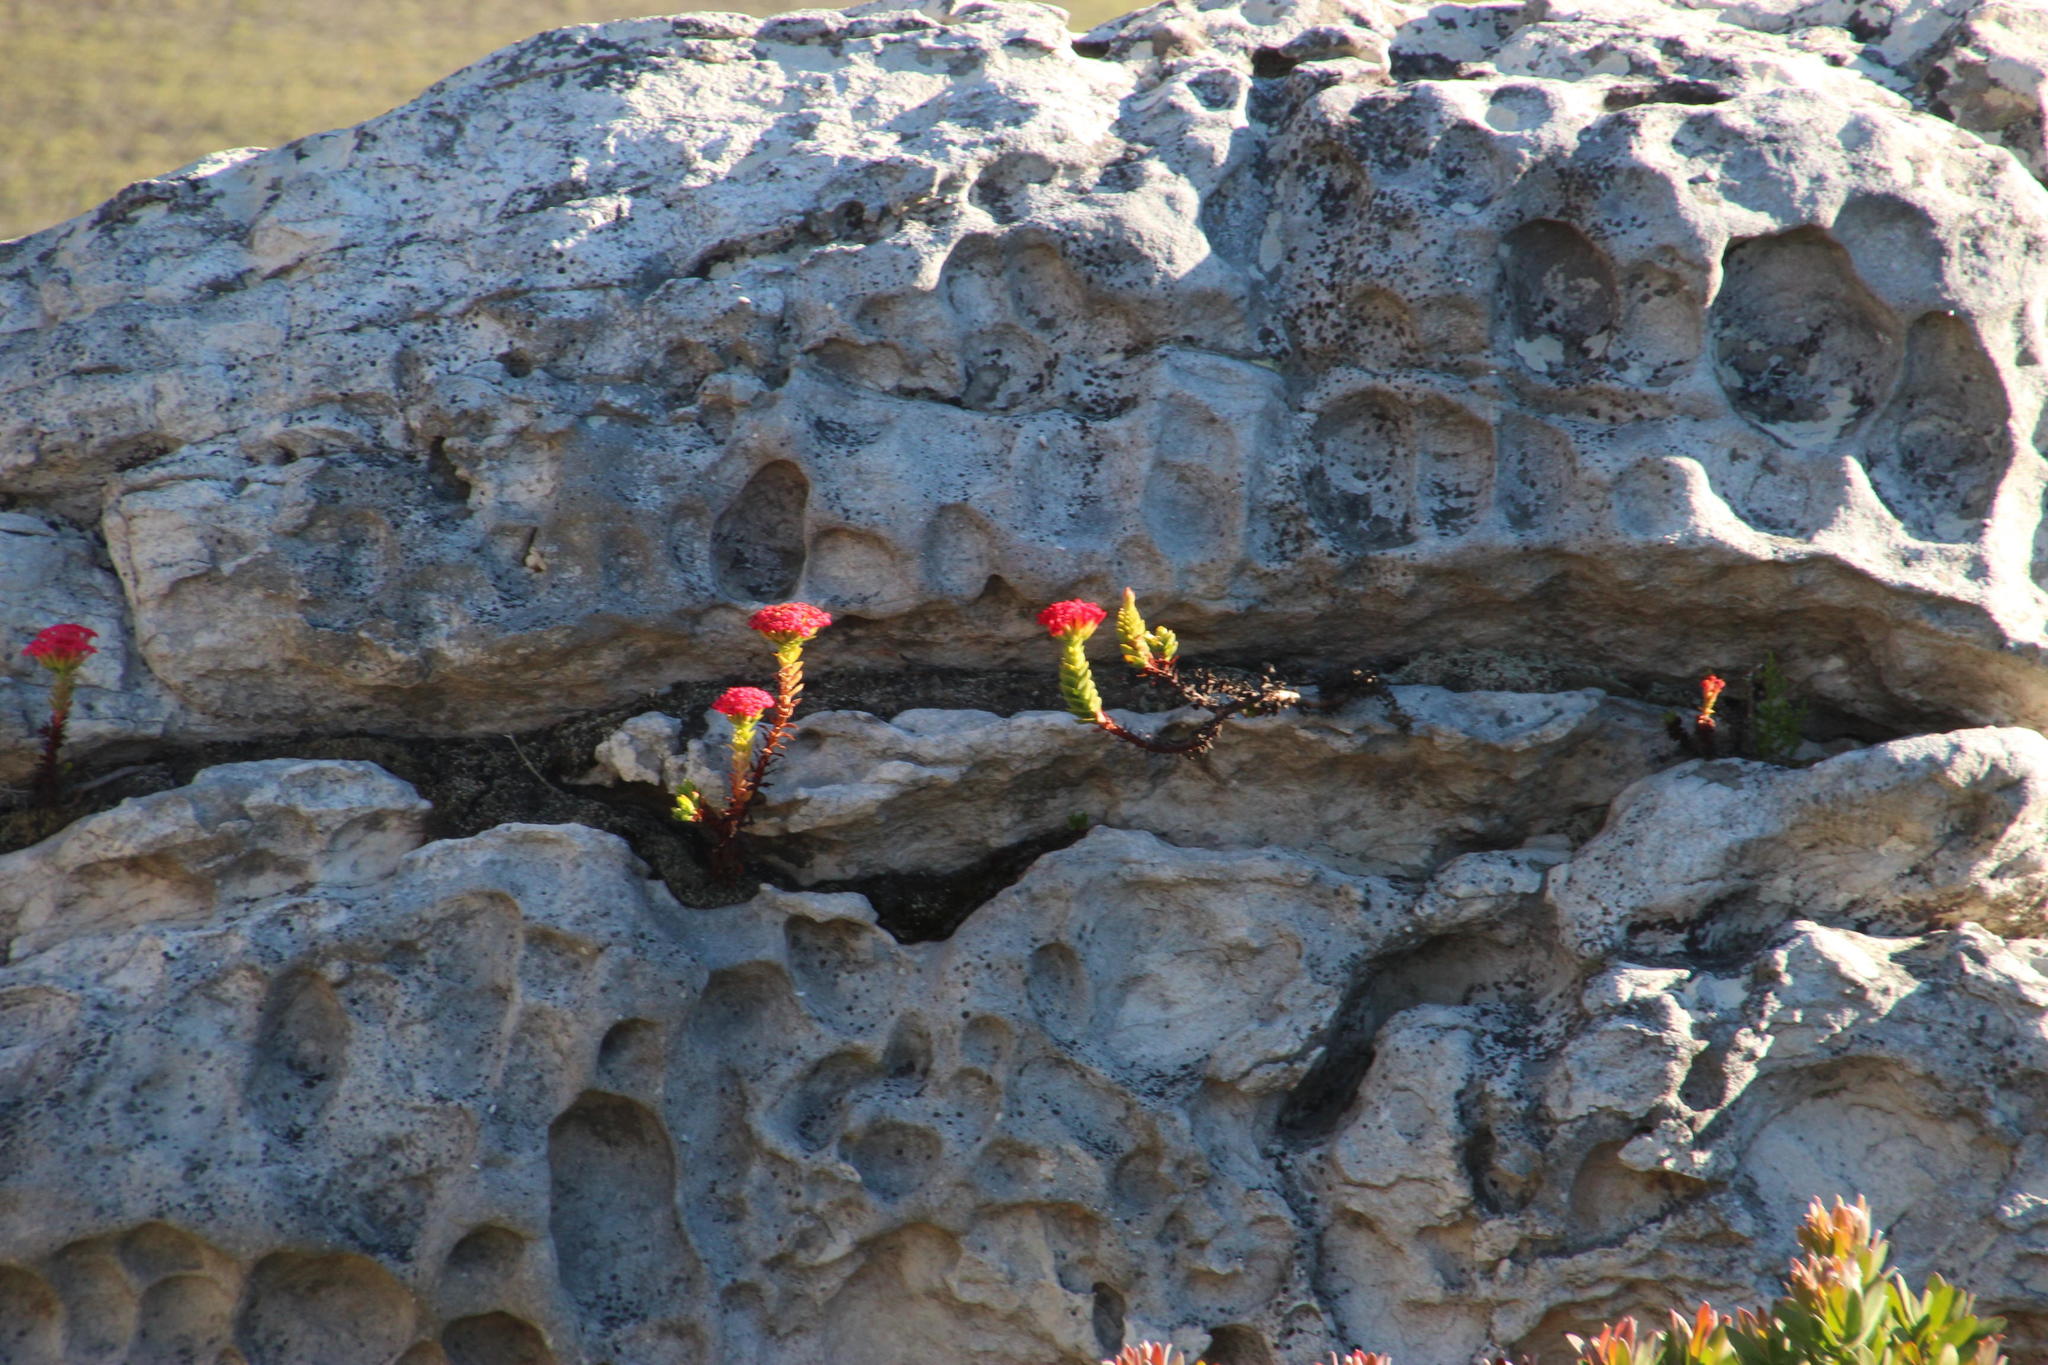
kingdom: Plantae
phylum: Tracheophyta
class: Magnoliopsida
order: Saxifragales
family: Crassulaceae
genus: Crassula
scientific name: Crassula coccinea
